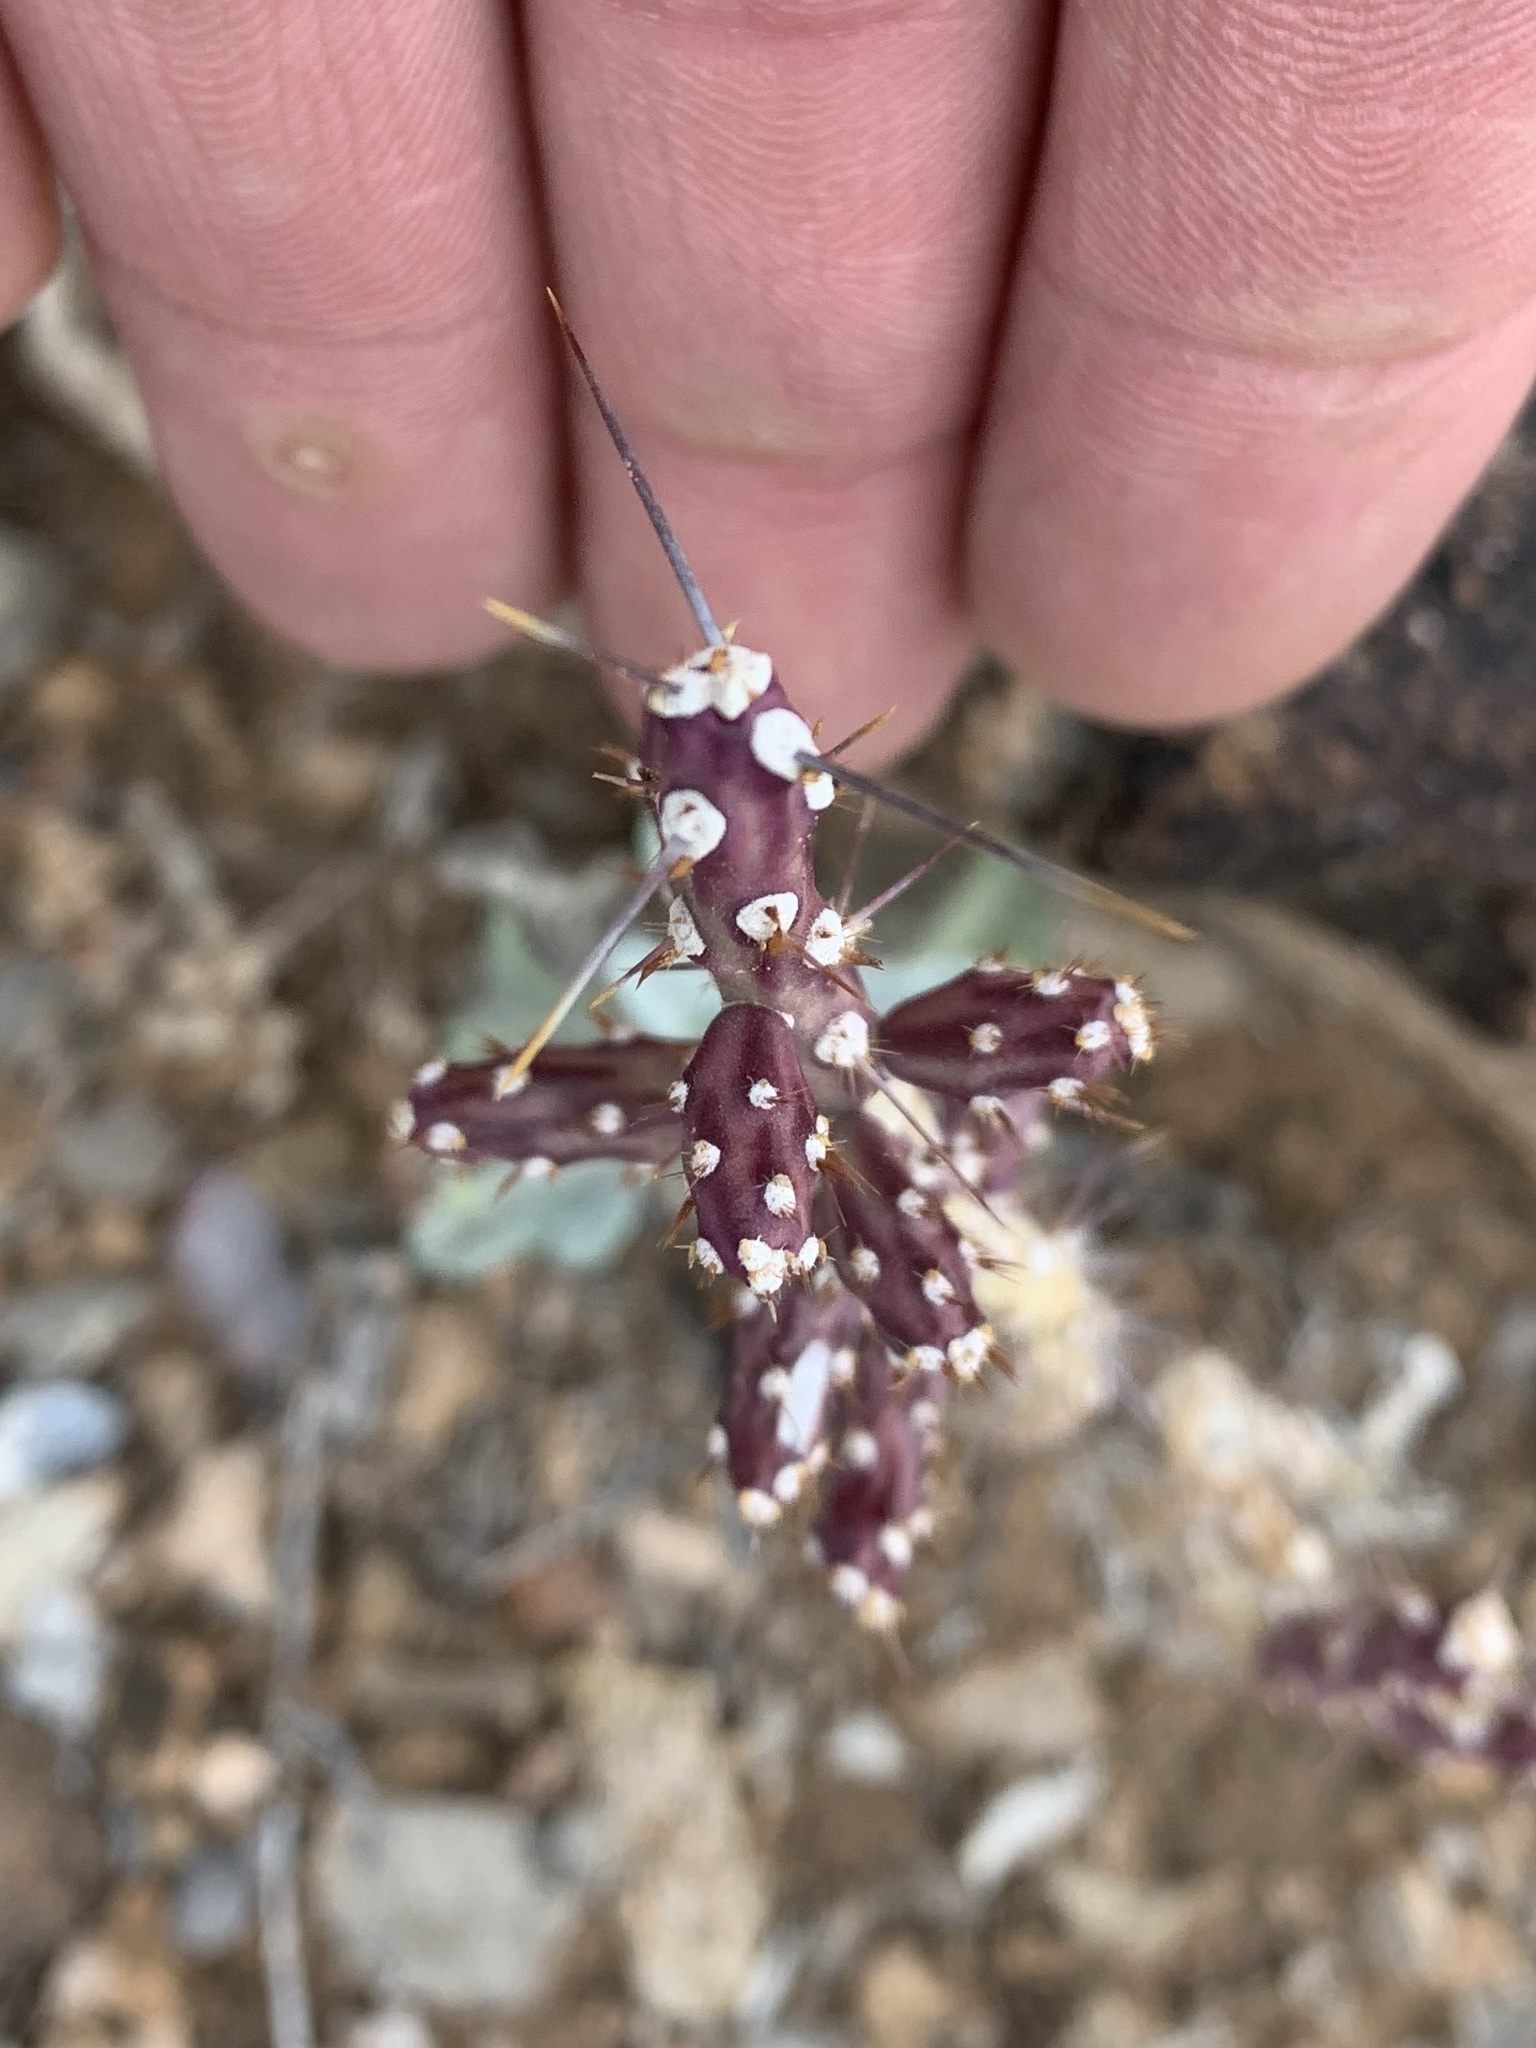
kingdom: Plantae
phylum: Tracheophyta
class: Magnoliopsida
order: Caryophyllales
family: Cactaceae
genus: Cylindropuntia
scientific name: Cylindropuntia leptocaulis
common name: Christmas cactus
